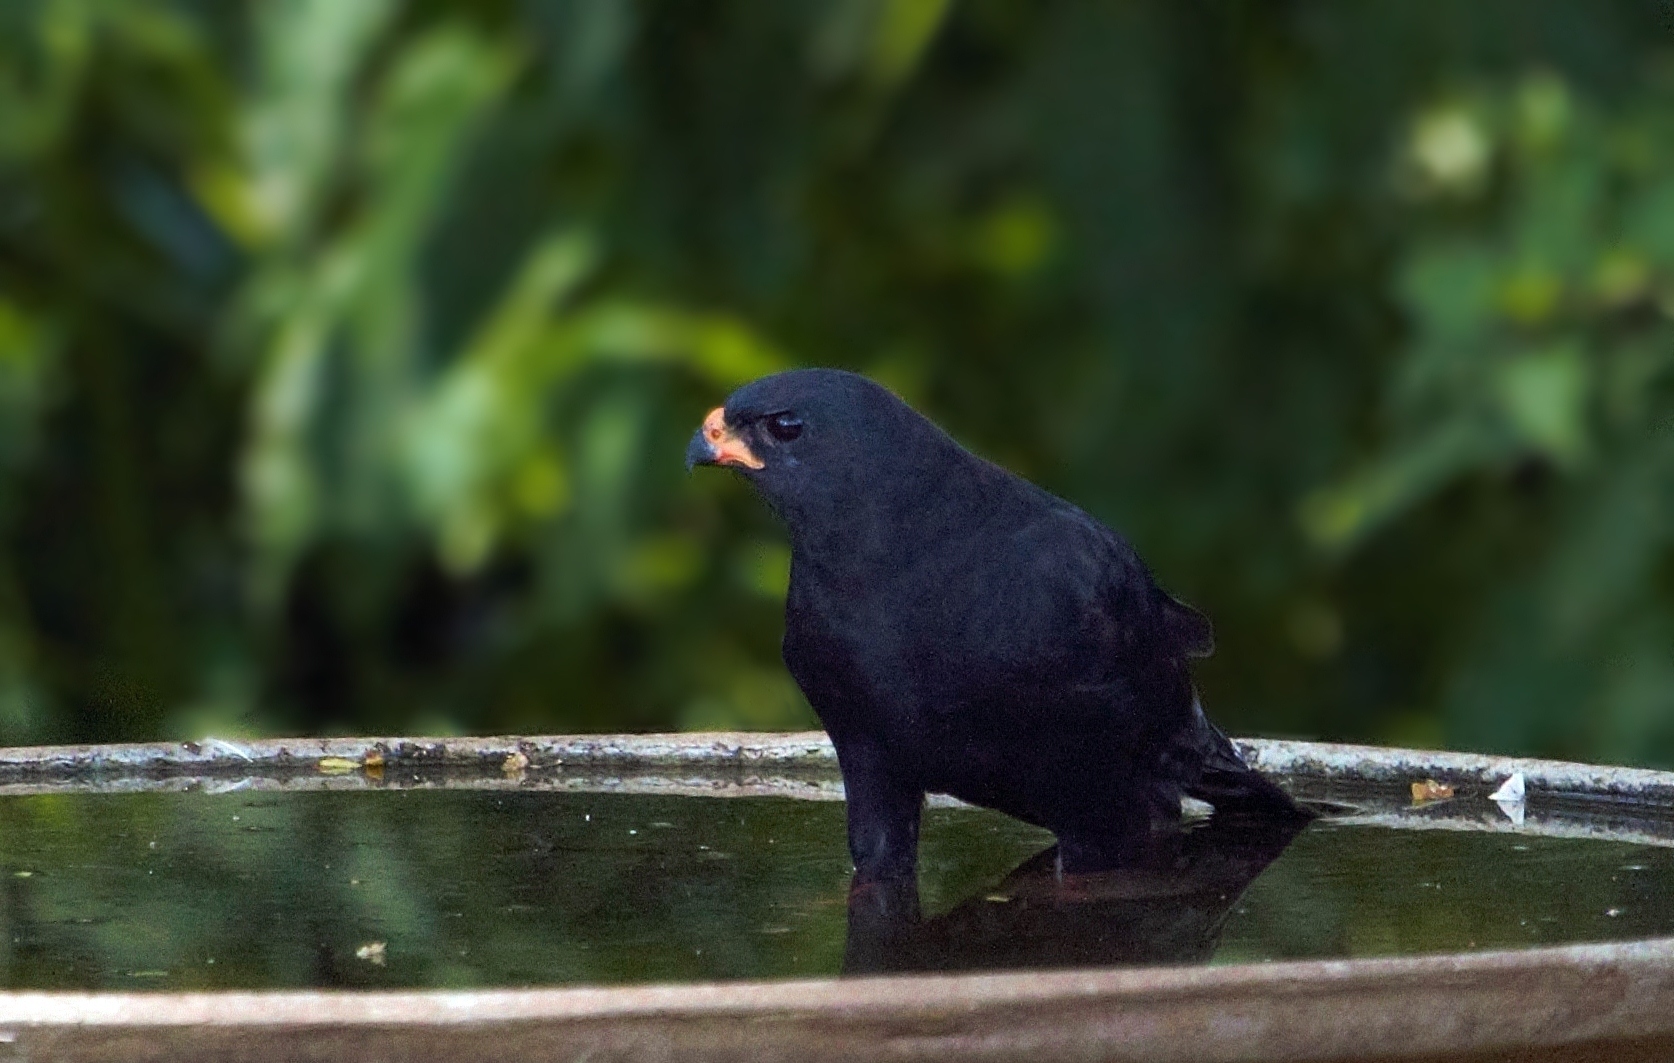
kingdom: Animalia
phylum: Chordata
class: Aves
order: Accipitriformes
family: Accipitridae
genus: Micronisus
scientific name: Micronisus gabar
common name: Gabar goshawk
